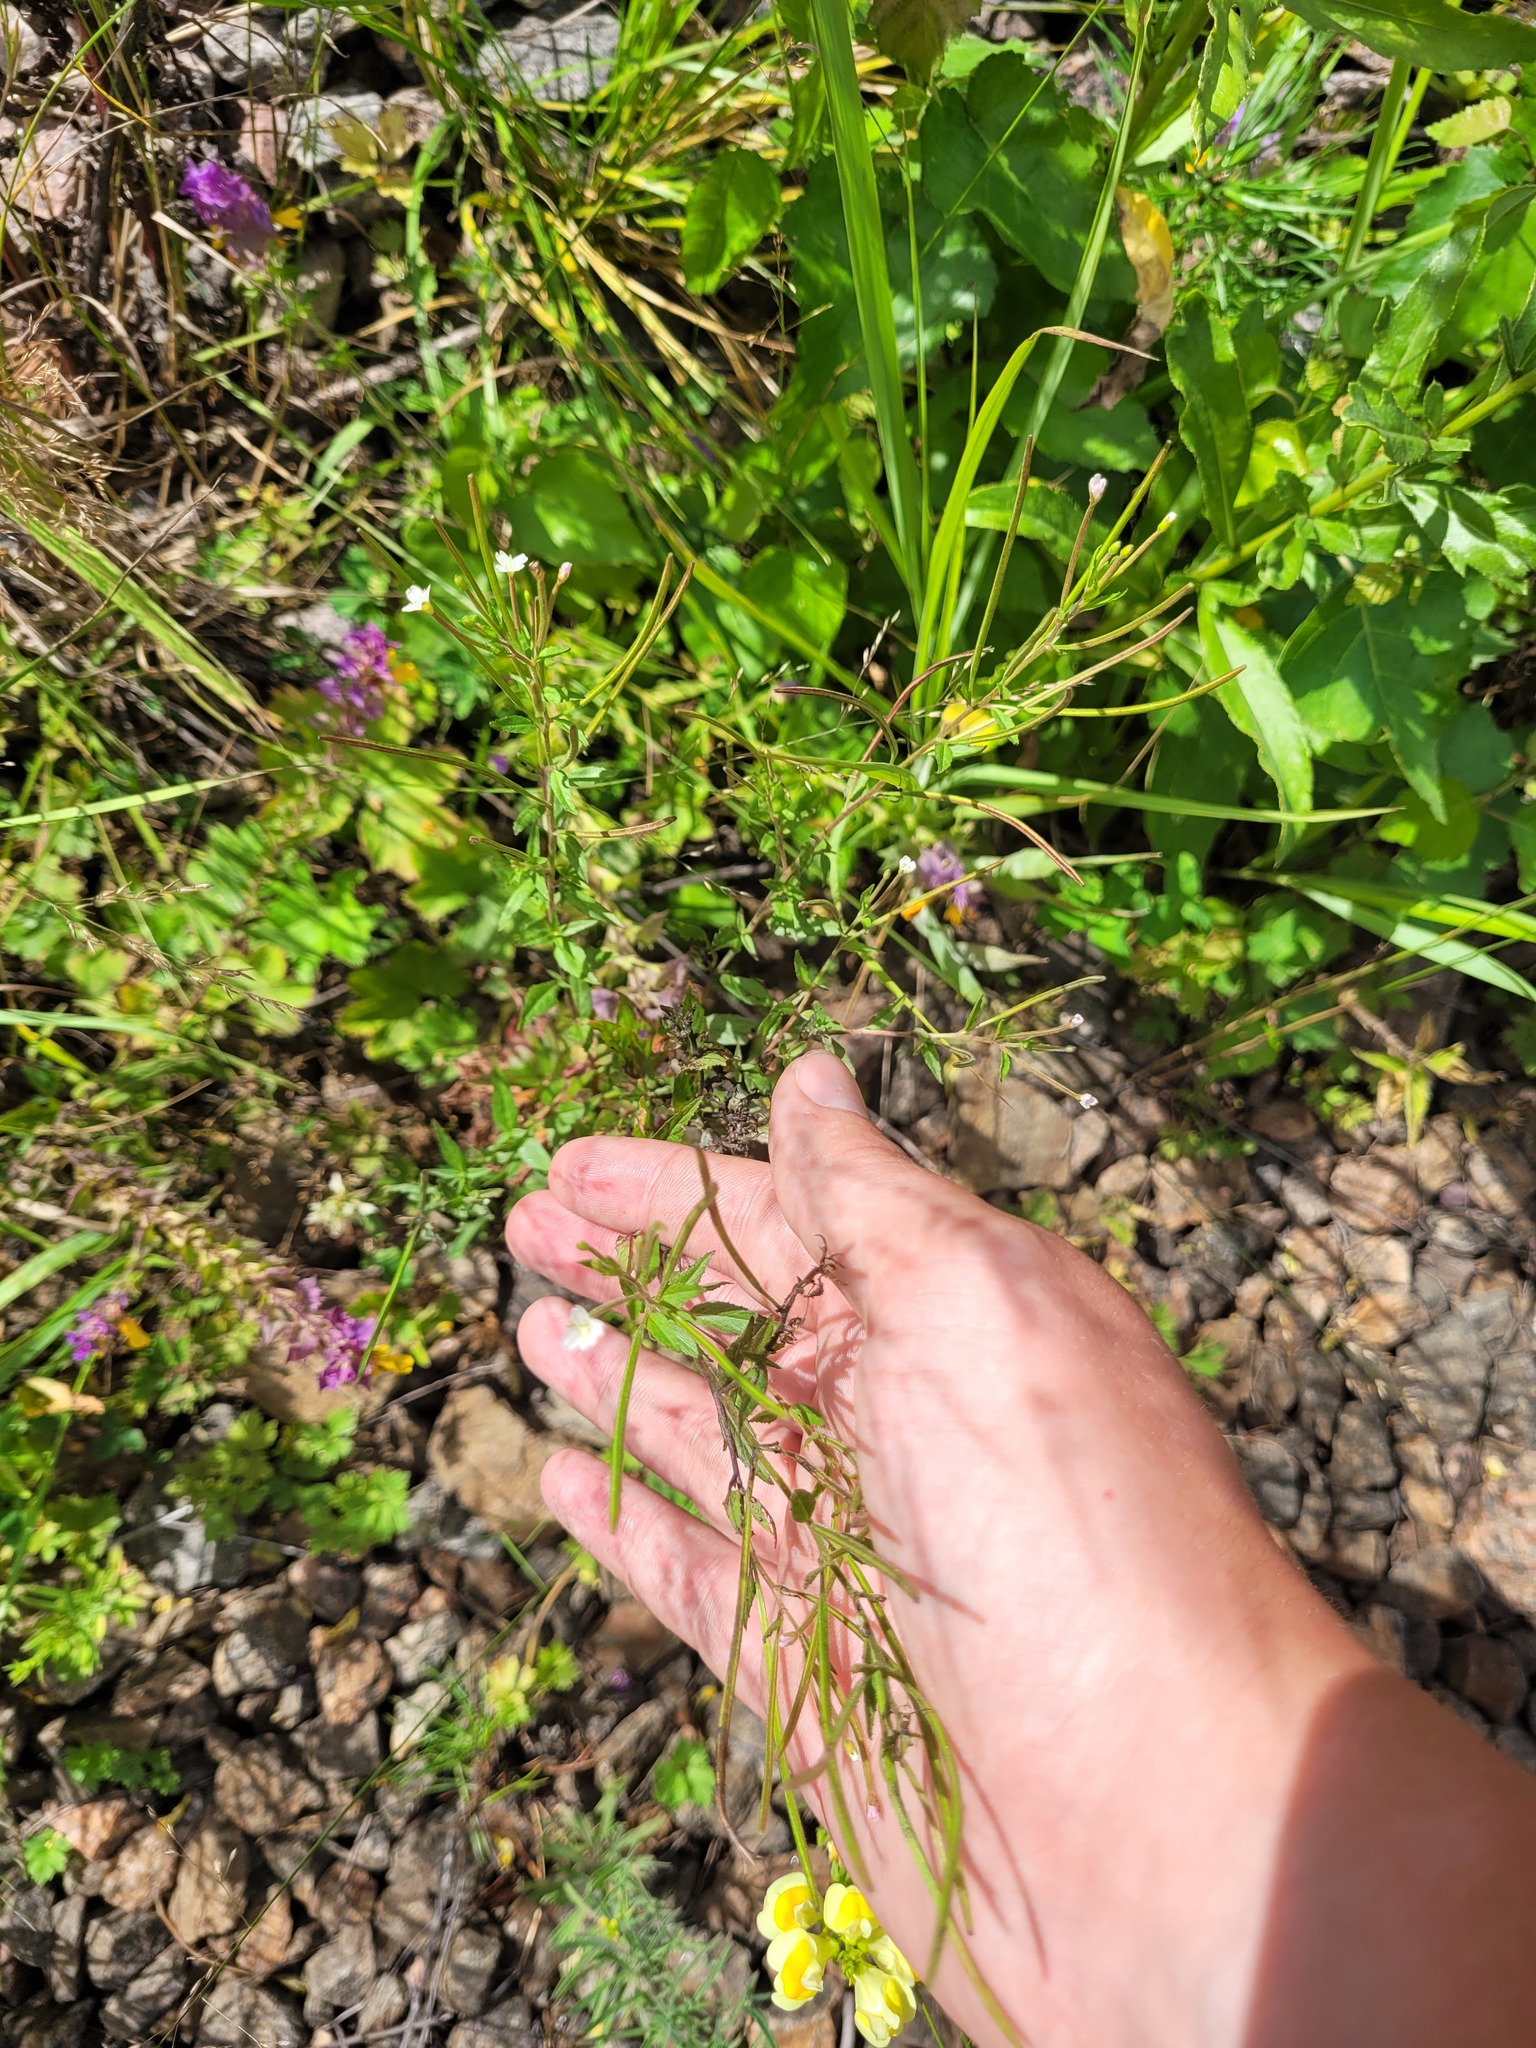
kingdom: Plantae
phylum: Tracheophyta
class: Magnoliopsida
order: Myrtales
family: Onagraceae
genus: Epilobium
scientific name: Epilobium pseudorubescens
